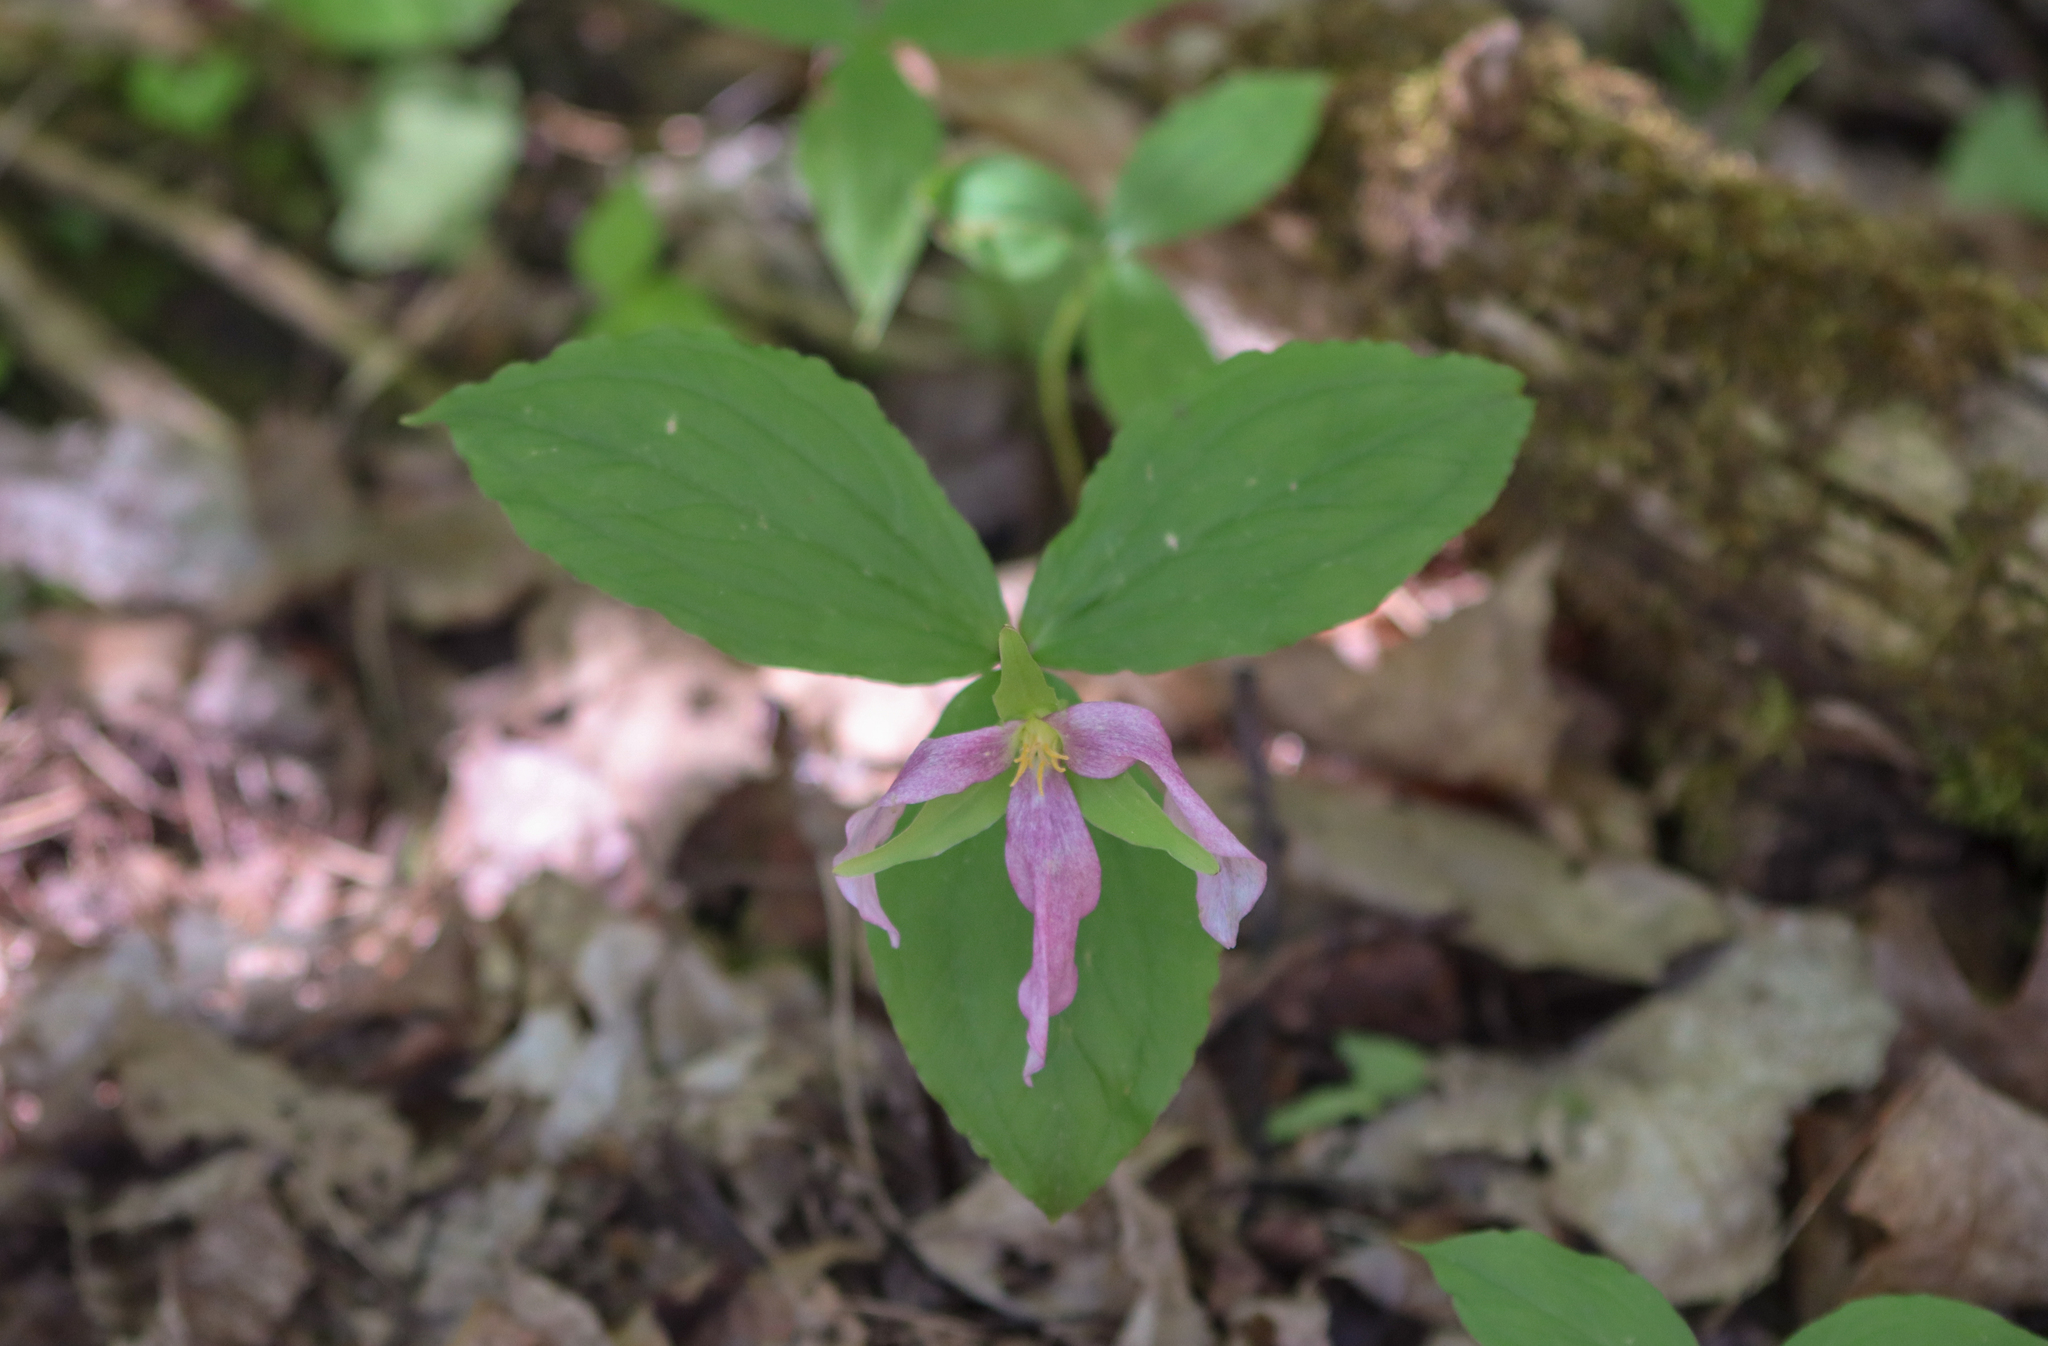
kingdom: Plantae
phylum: Tracheophyta
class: Liliopsida
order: Liliales
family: Melanthiaceae
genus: Trillium
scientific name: Trillium grandiflorum
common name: Great white trillium
